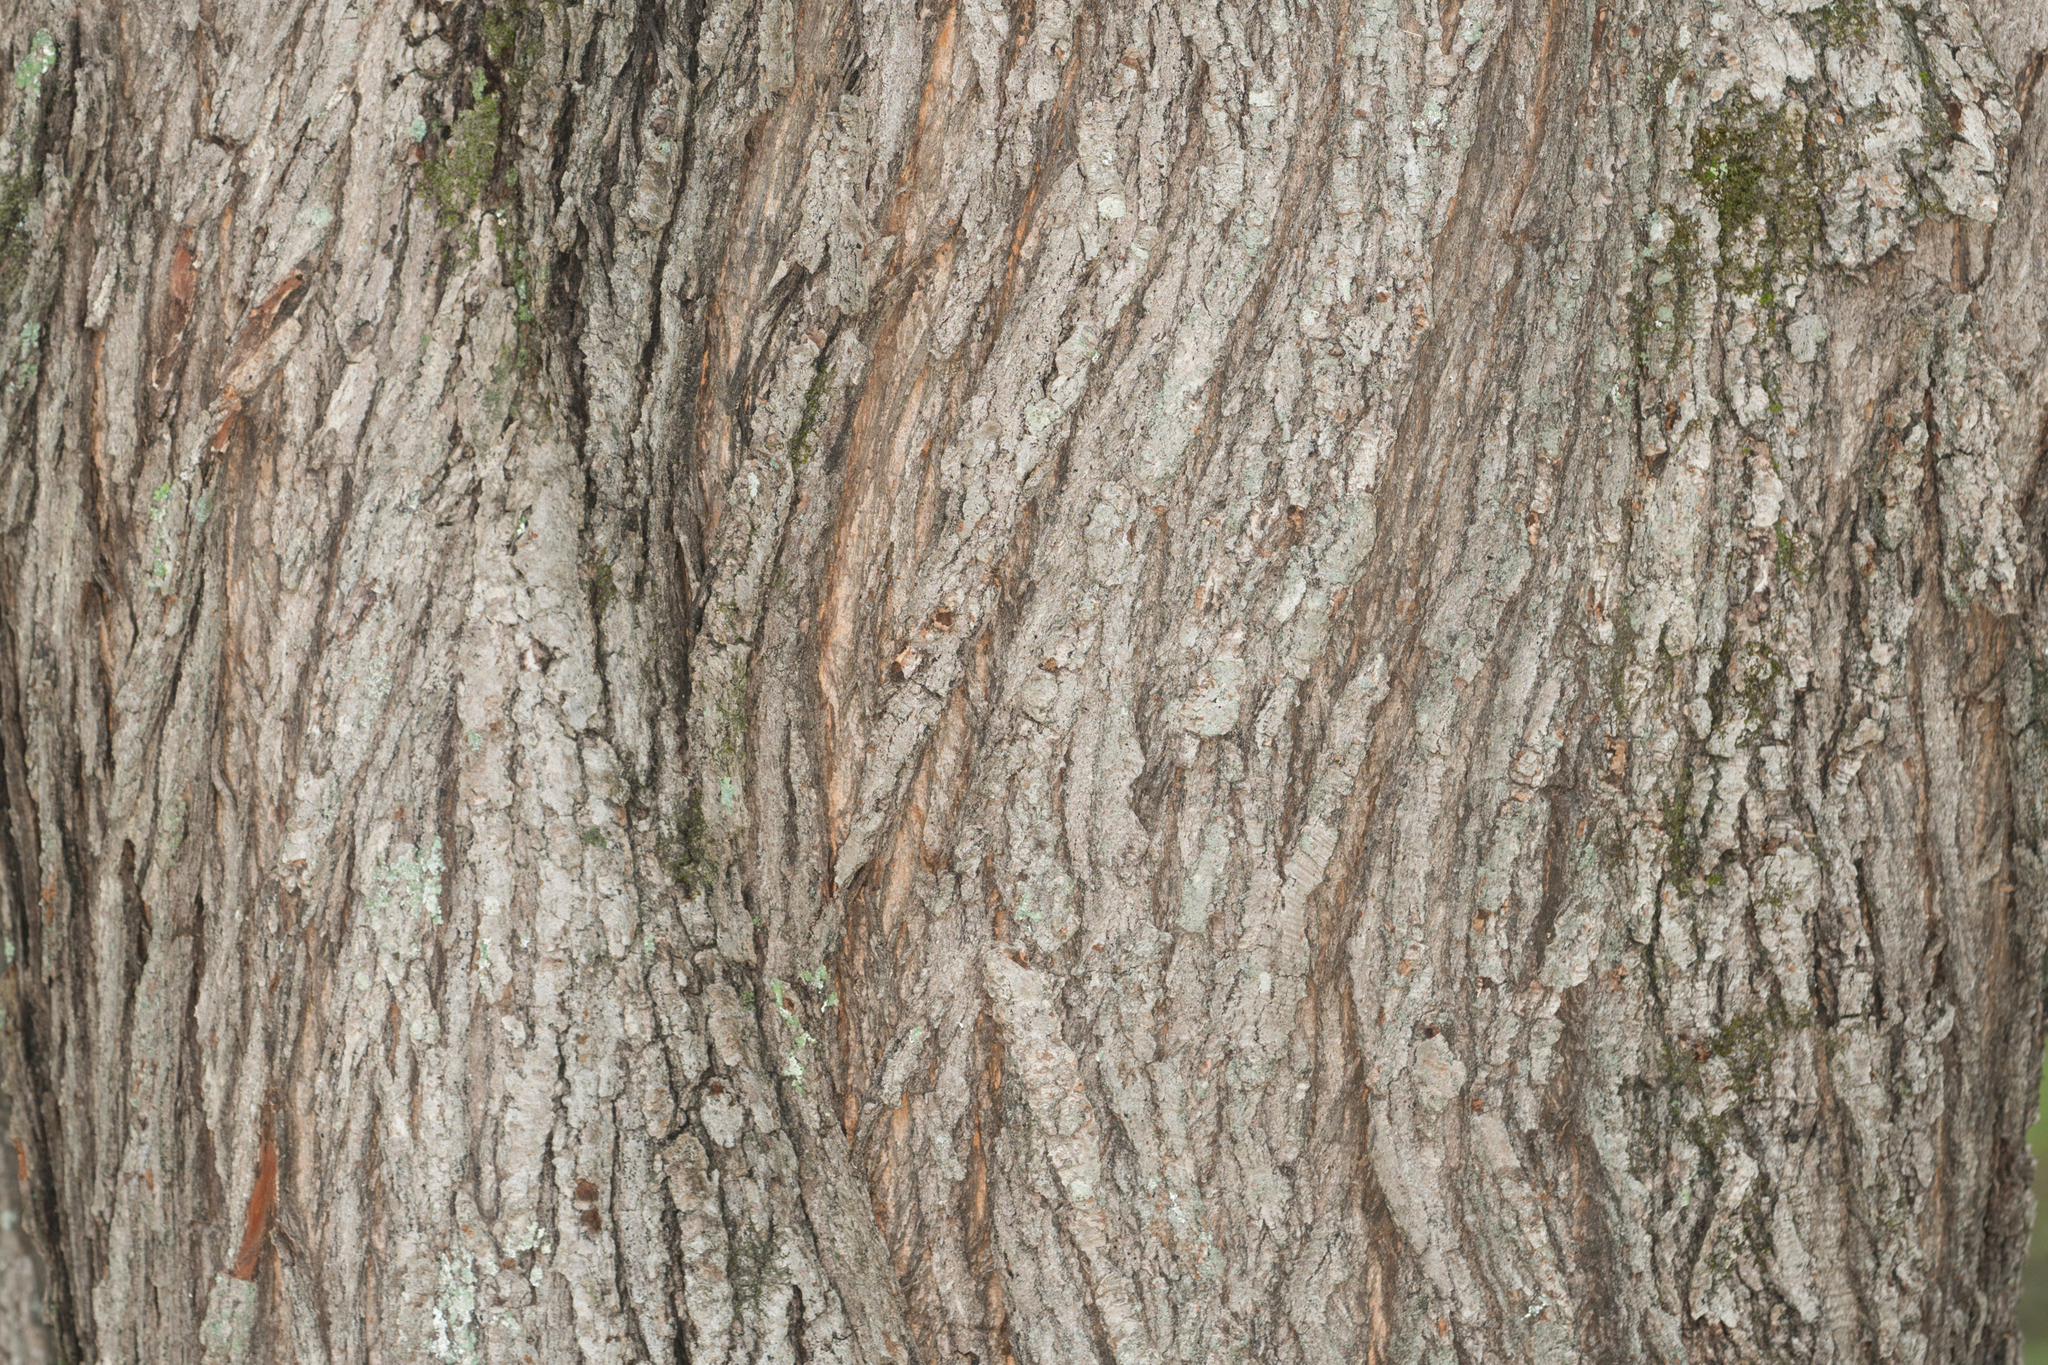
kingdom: Plantae
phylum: Tracheophyta
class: Magnoliopsida
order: Sapindales
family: Sapindaceae
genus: Acer
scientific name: Acer rubrum
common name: Red maple
